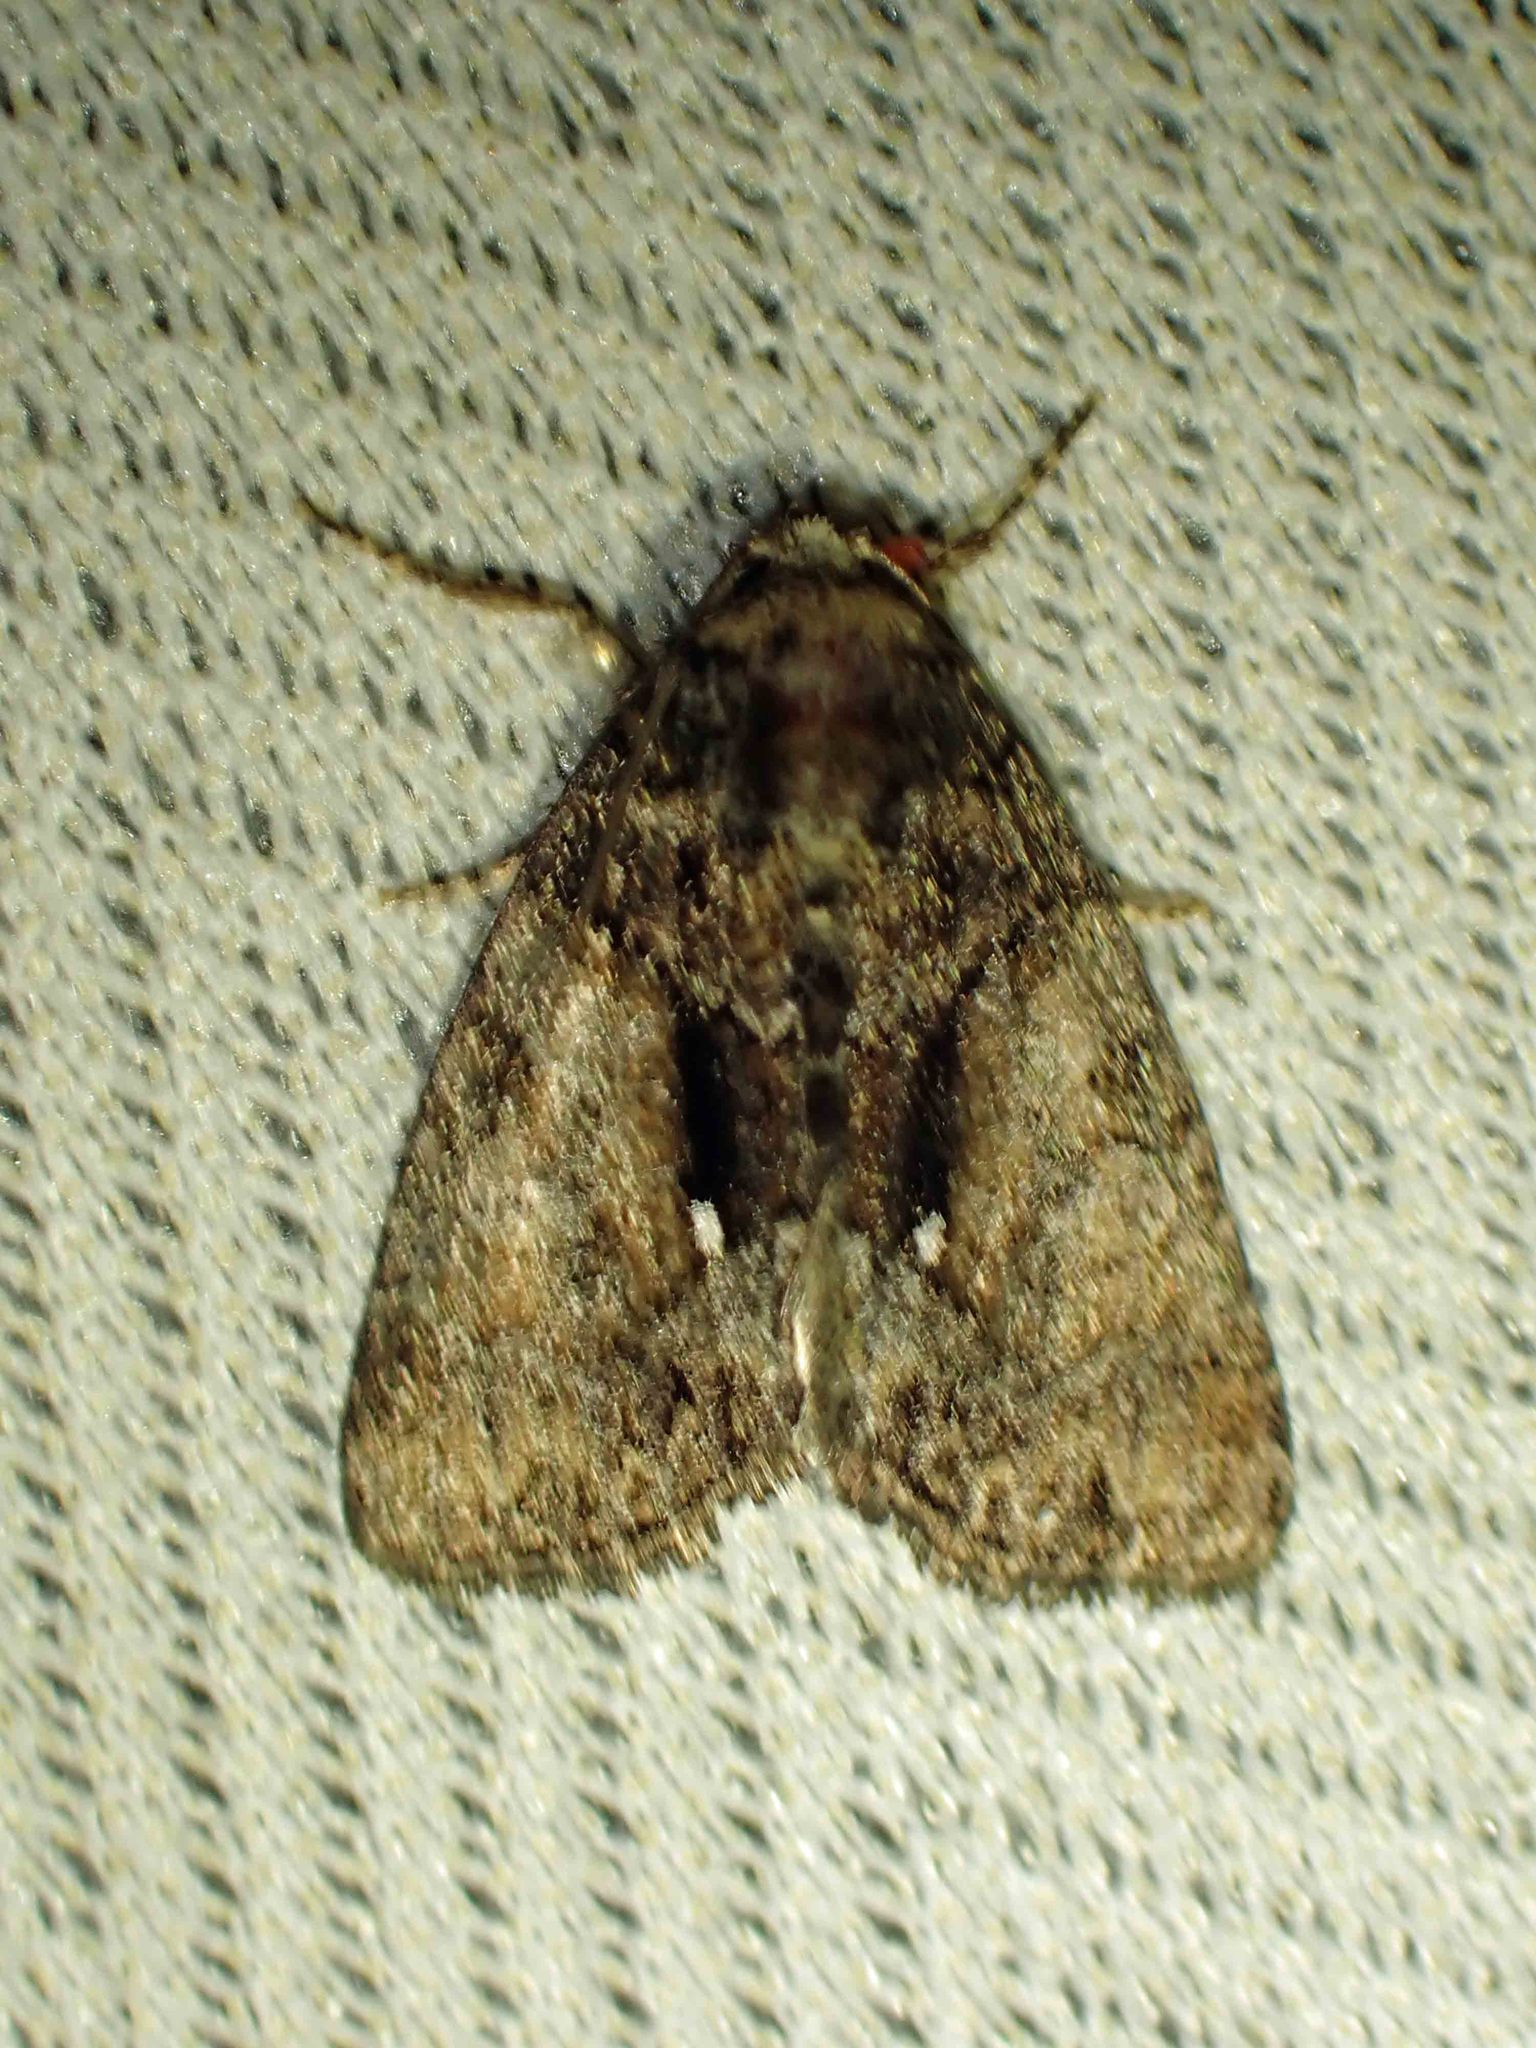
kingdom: Animalia
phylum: Arthropoda
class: Insecta
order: Lepidoptera
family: Noctuidae
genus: Chytonix
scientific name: Chytonix palliatricula
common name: Cloaked marvel
